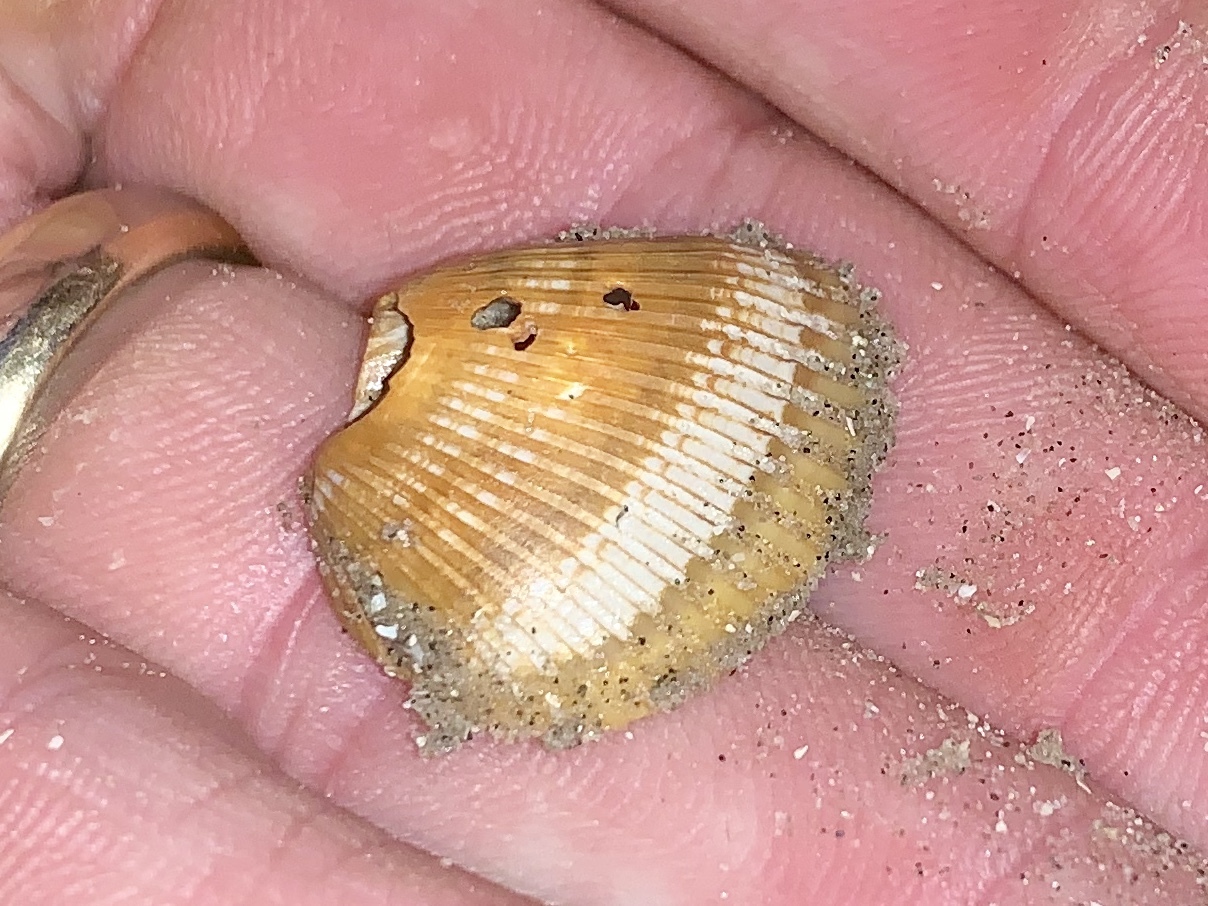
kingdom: Animalia
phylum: Mollusca
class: Bivalvia
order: Arcida
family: Noetiidae
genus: Noetia
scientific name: Noetia ponderosa
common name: Ponderous ark
